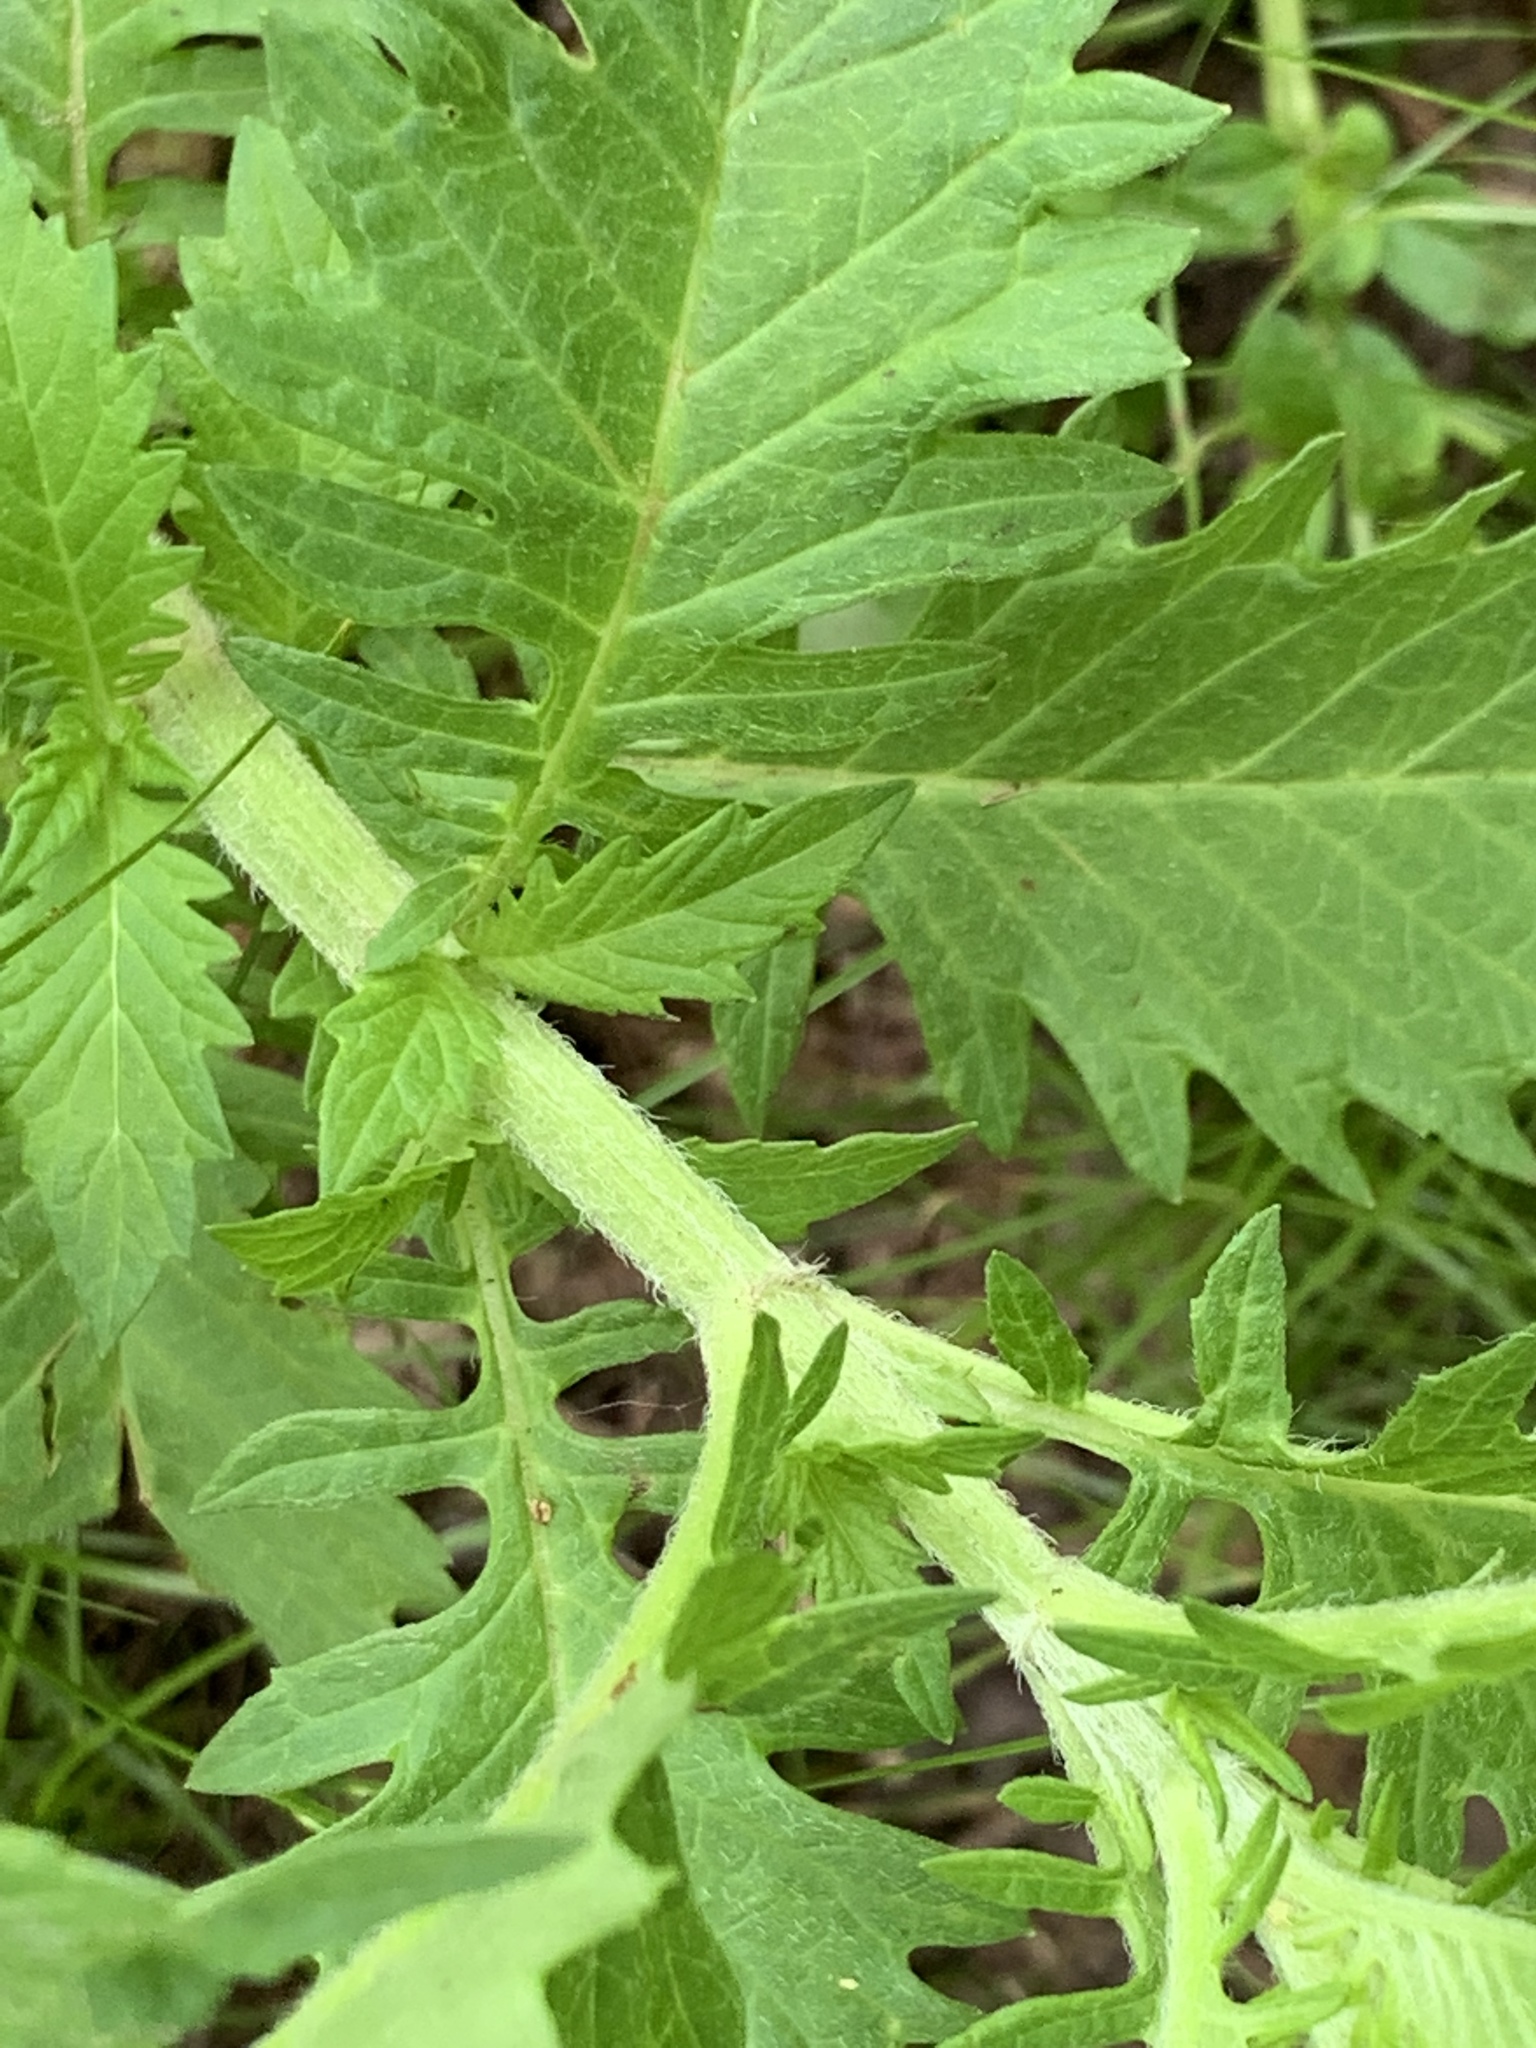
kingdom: Plantae
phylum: Tracheophyta
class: Magnoliopsida
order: Lamiales
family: Lamiaceae
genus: Lycopus
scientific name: Lycopus europaeus
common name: European bugleweed
